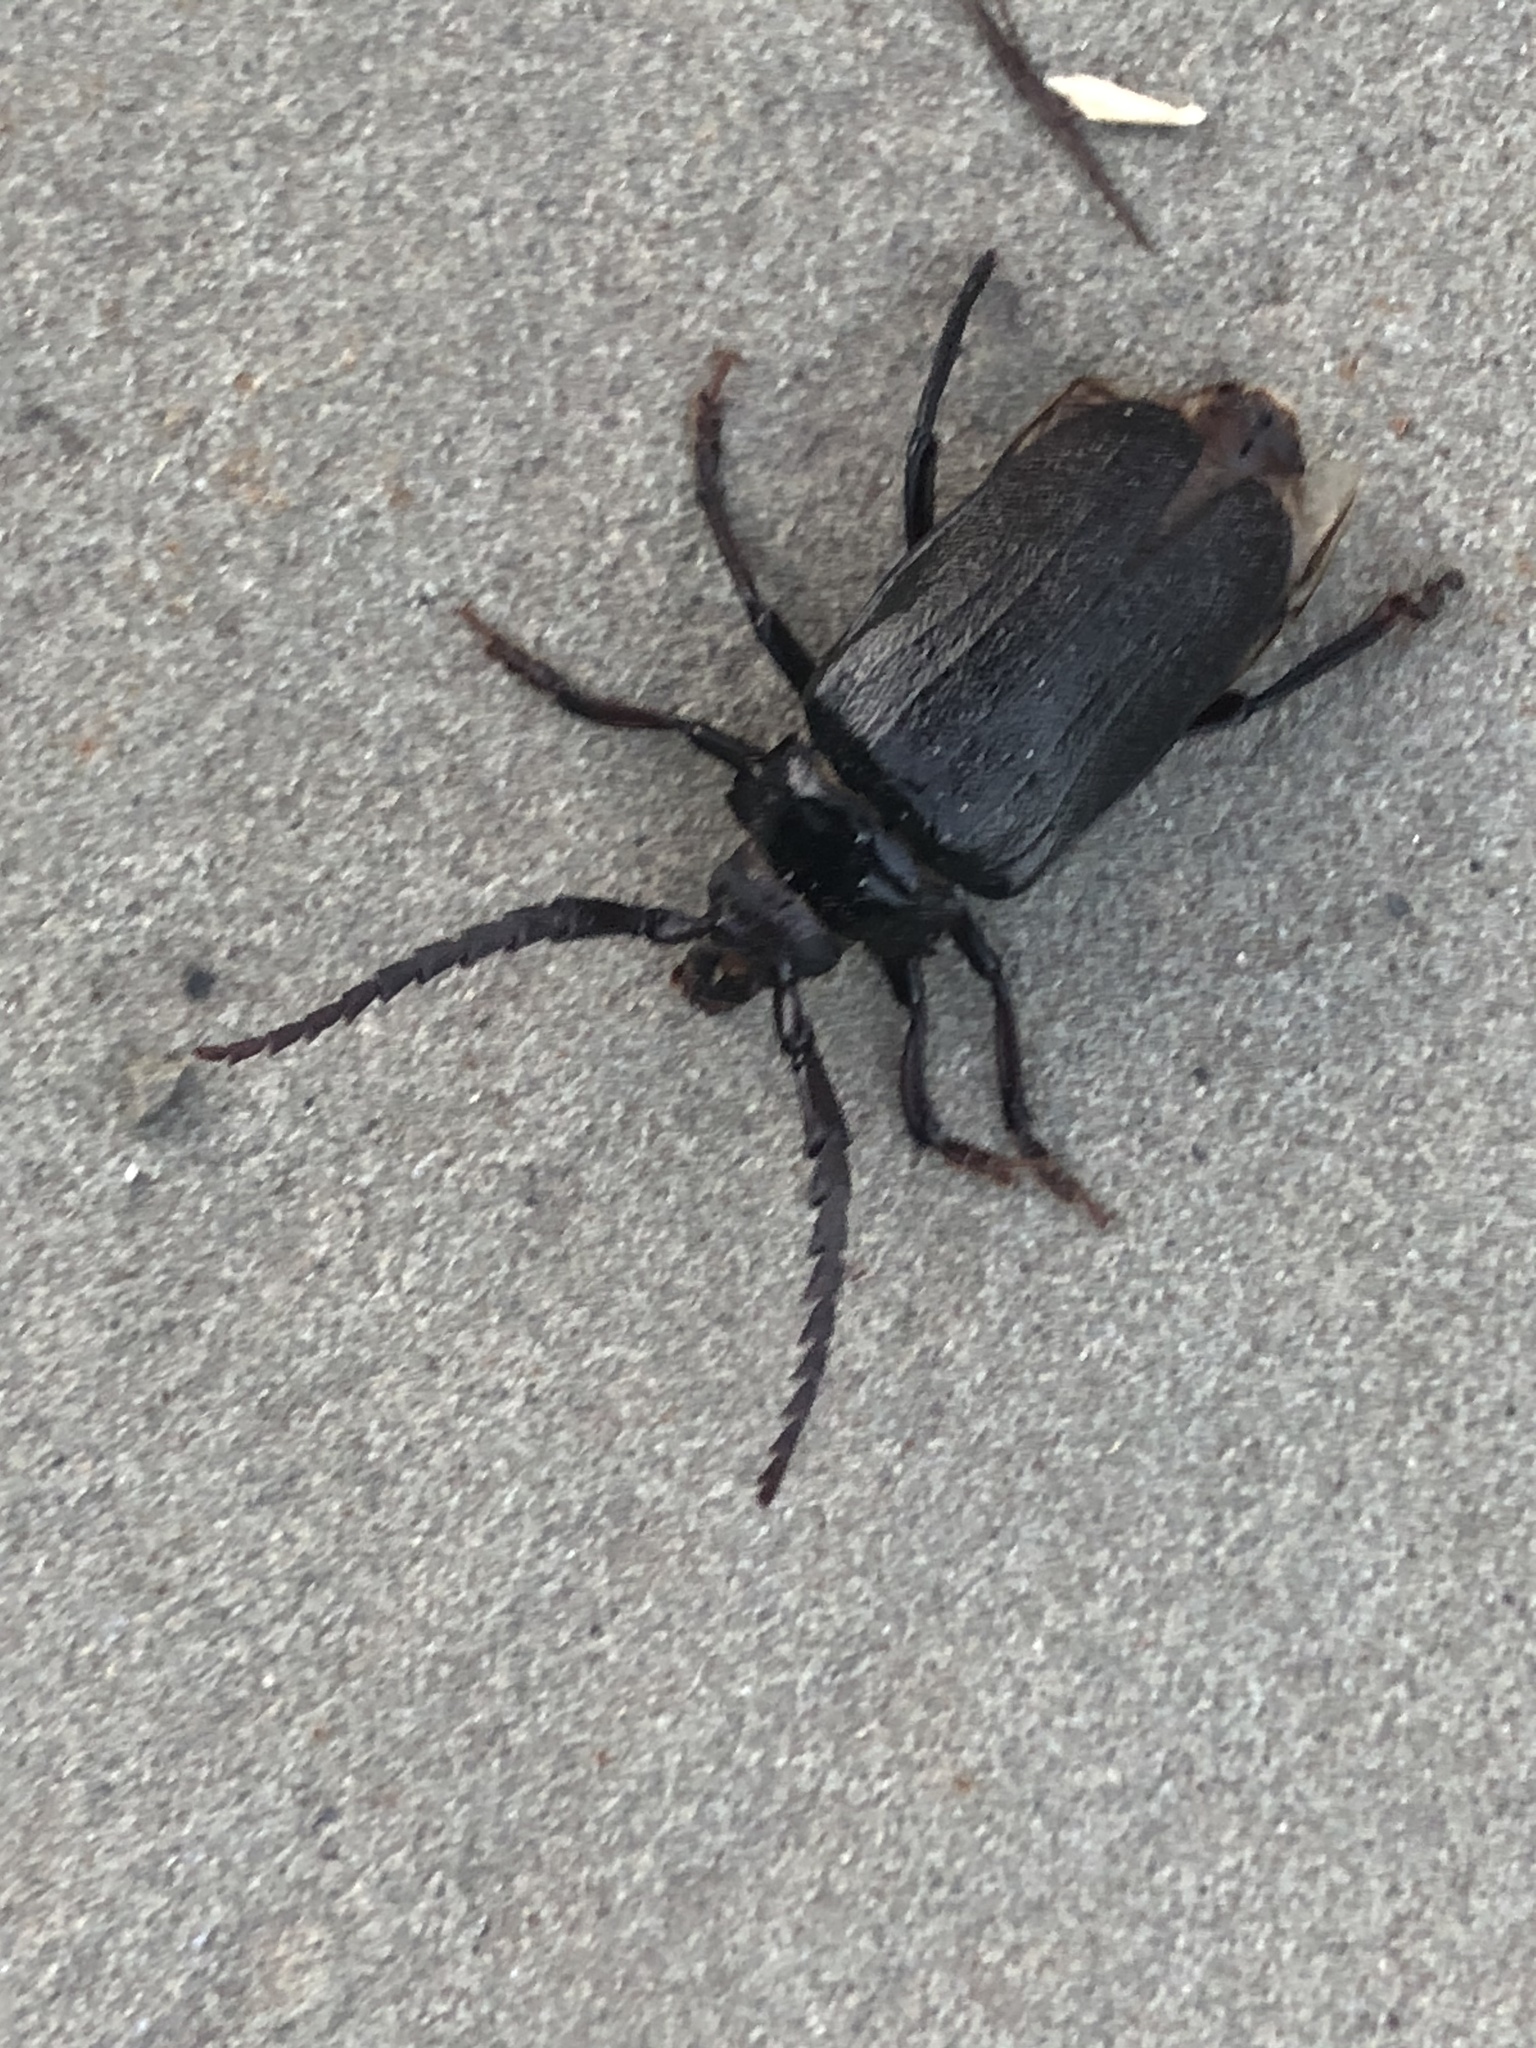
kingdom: Animalia
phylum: Arthropoda
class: Insecta
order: Coleoptera
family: Cerambycidae
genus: Prionus
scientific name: Prionus laticollis
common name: Broad necked prionus
